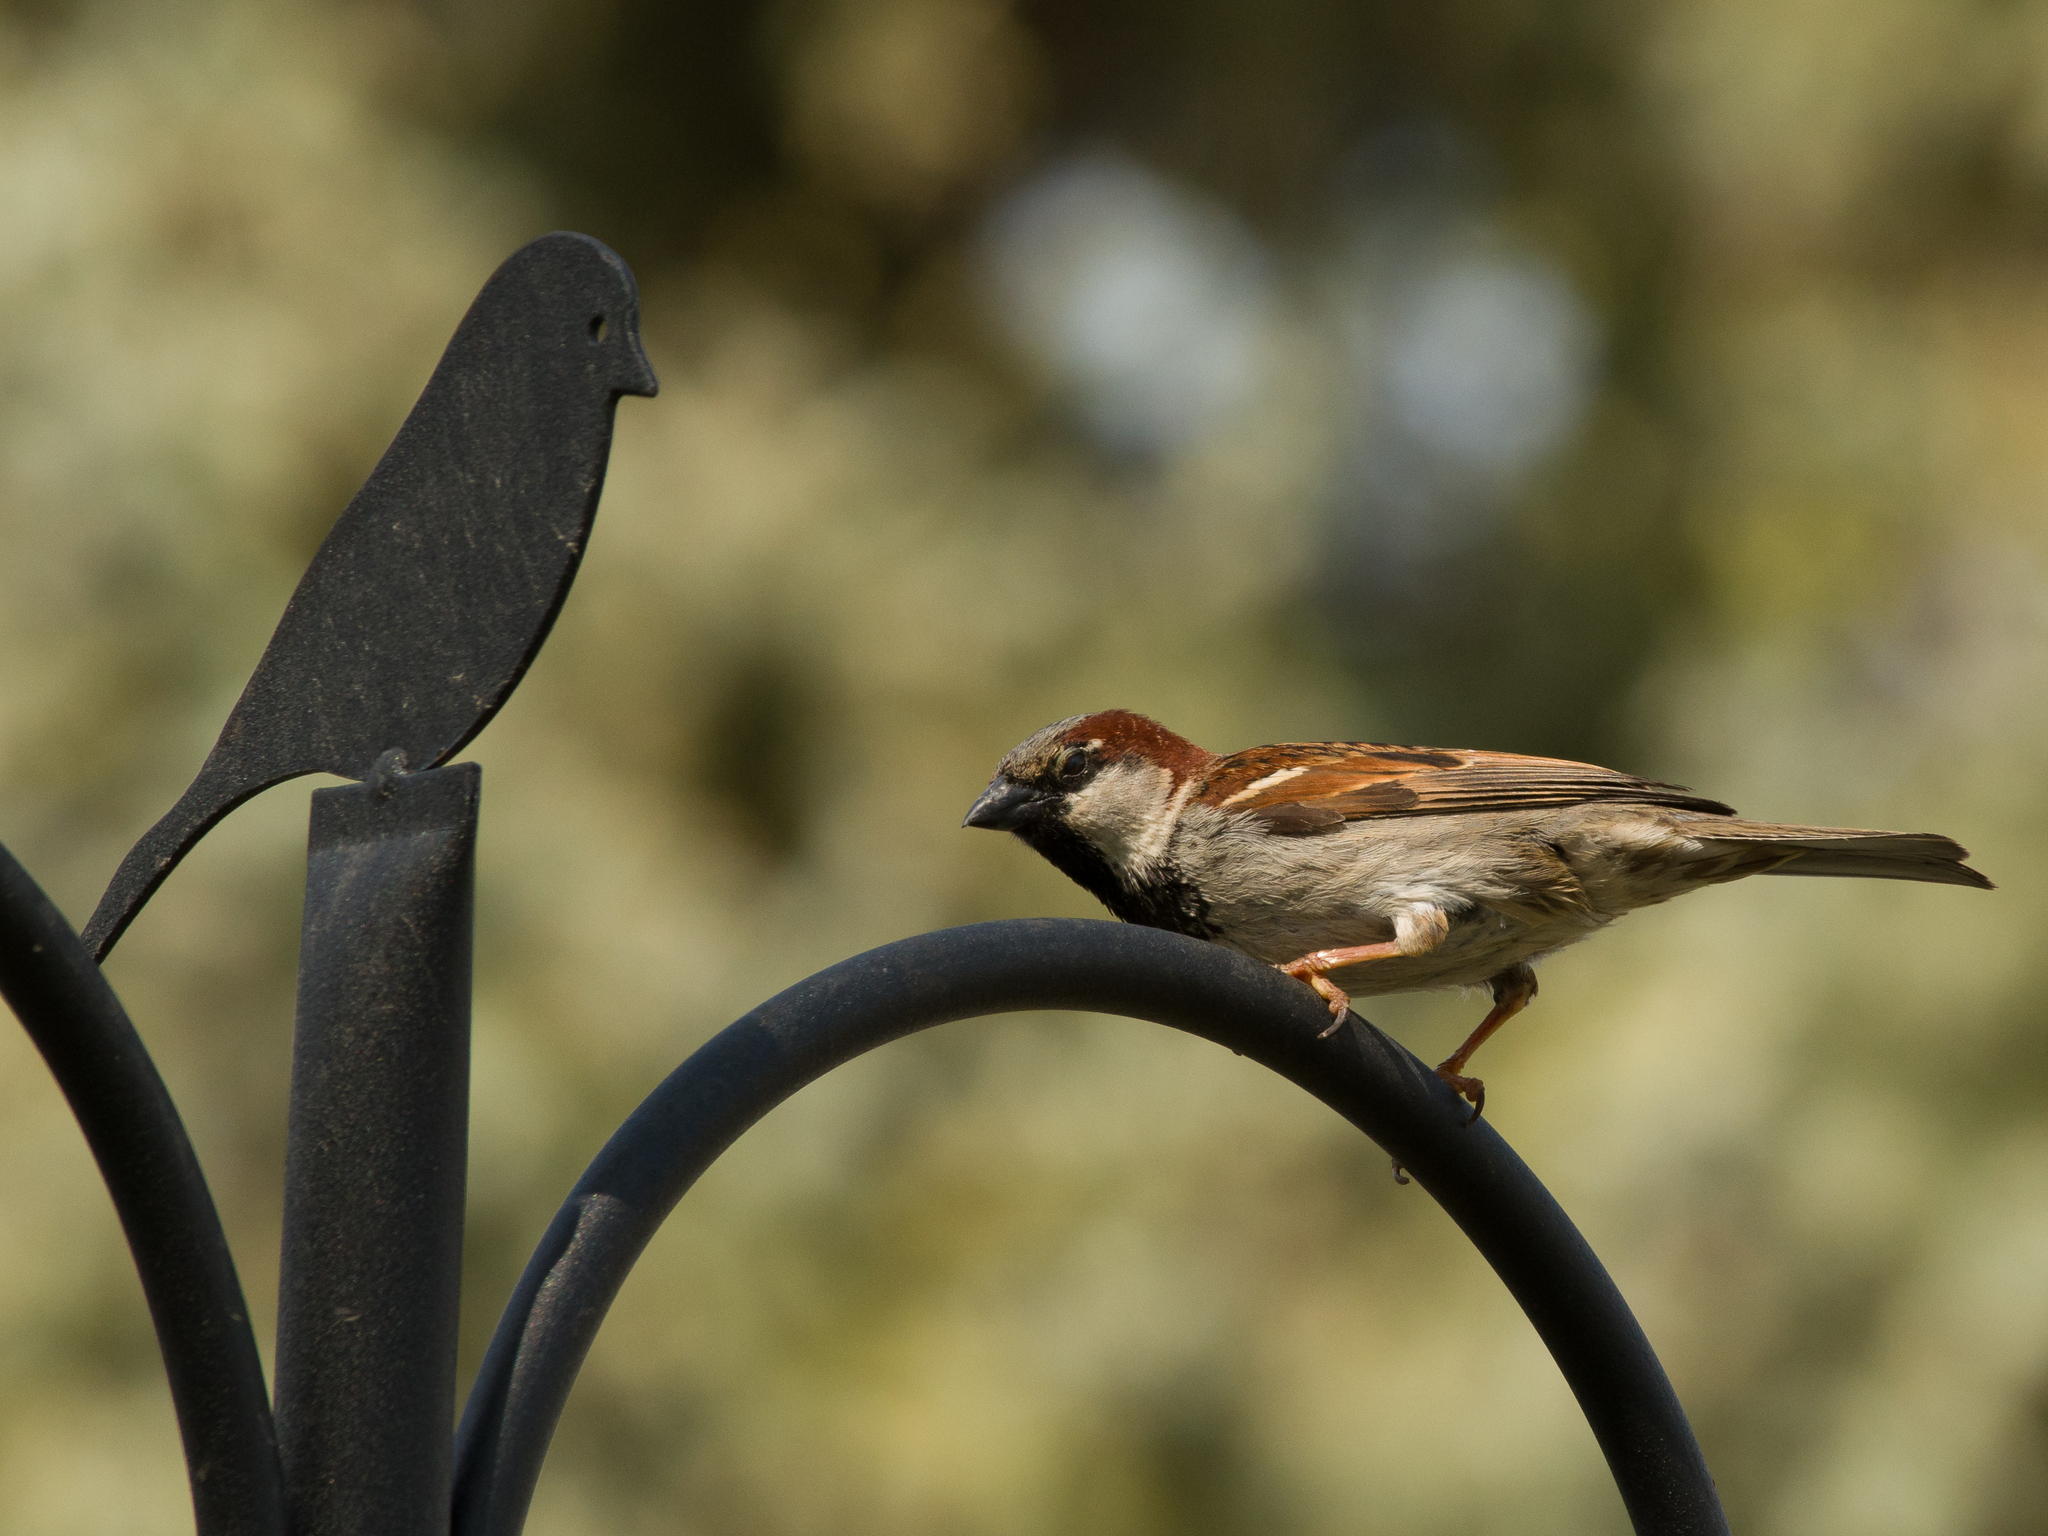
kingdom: Animalia
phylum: Chordata
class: Aves
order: Passeriformes
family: Passeridae
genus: Passer
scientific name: Passer domesticus
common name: House sparrow
